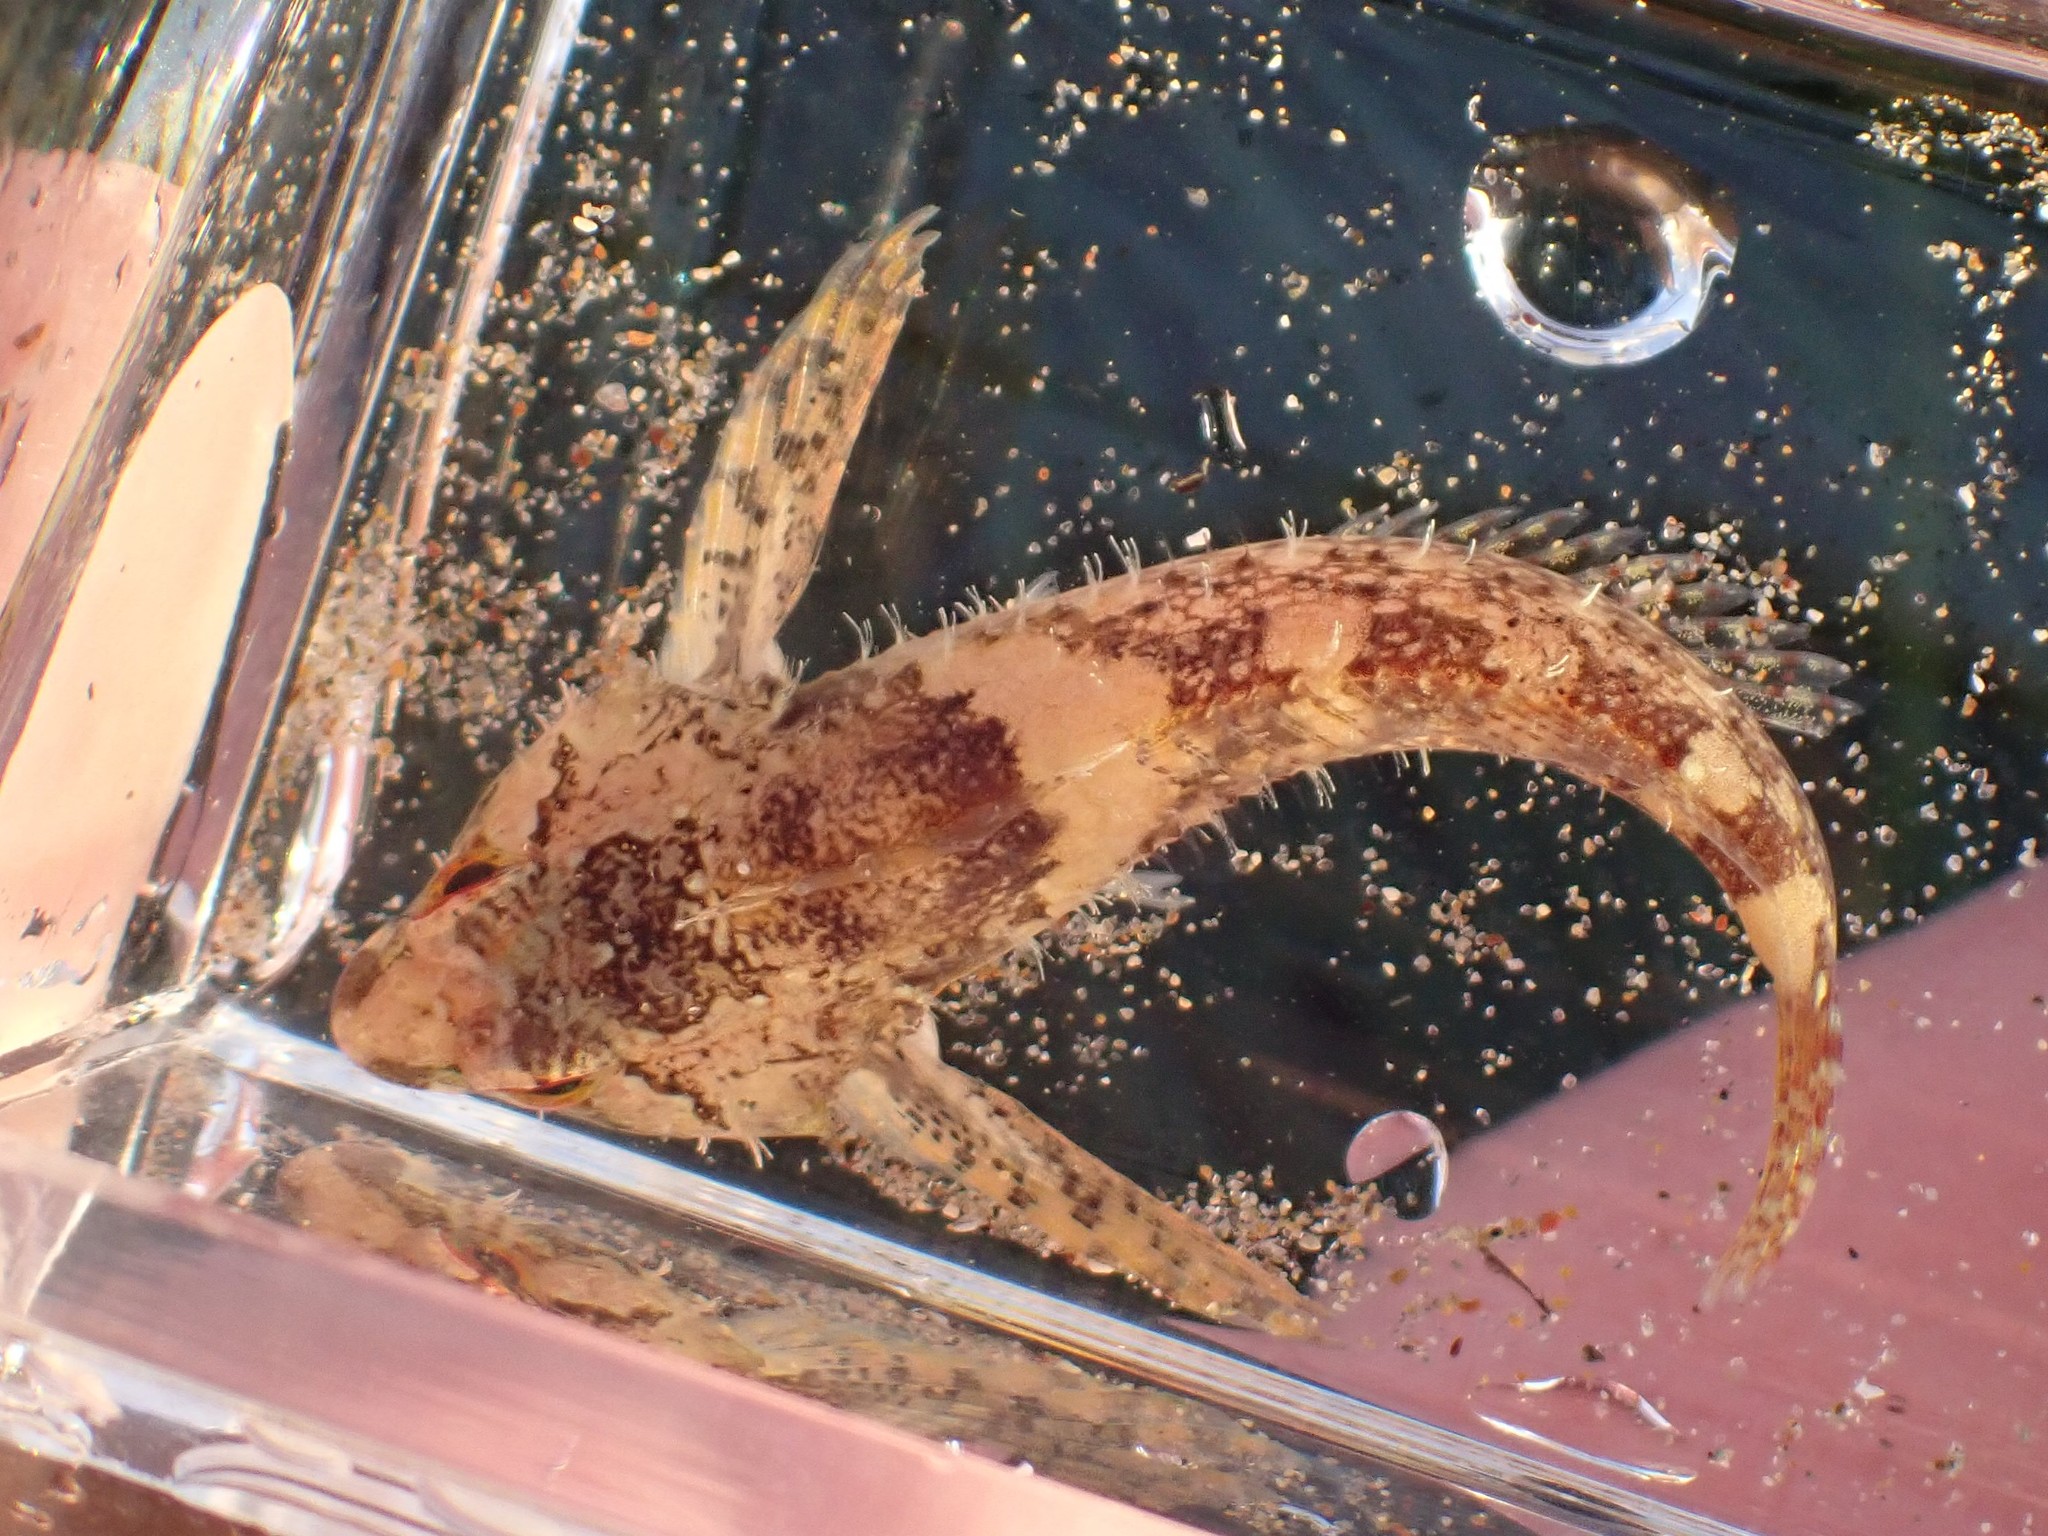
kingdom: Animalia
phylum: Chordata
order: Scorpaeniformes
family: Cottidae
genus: Oligocottus
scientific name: Oligocottus rubellio
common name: Rosy sculpin
